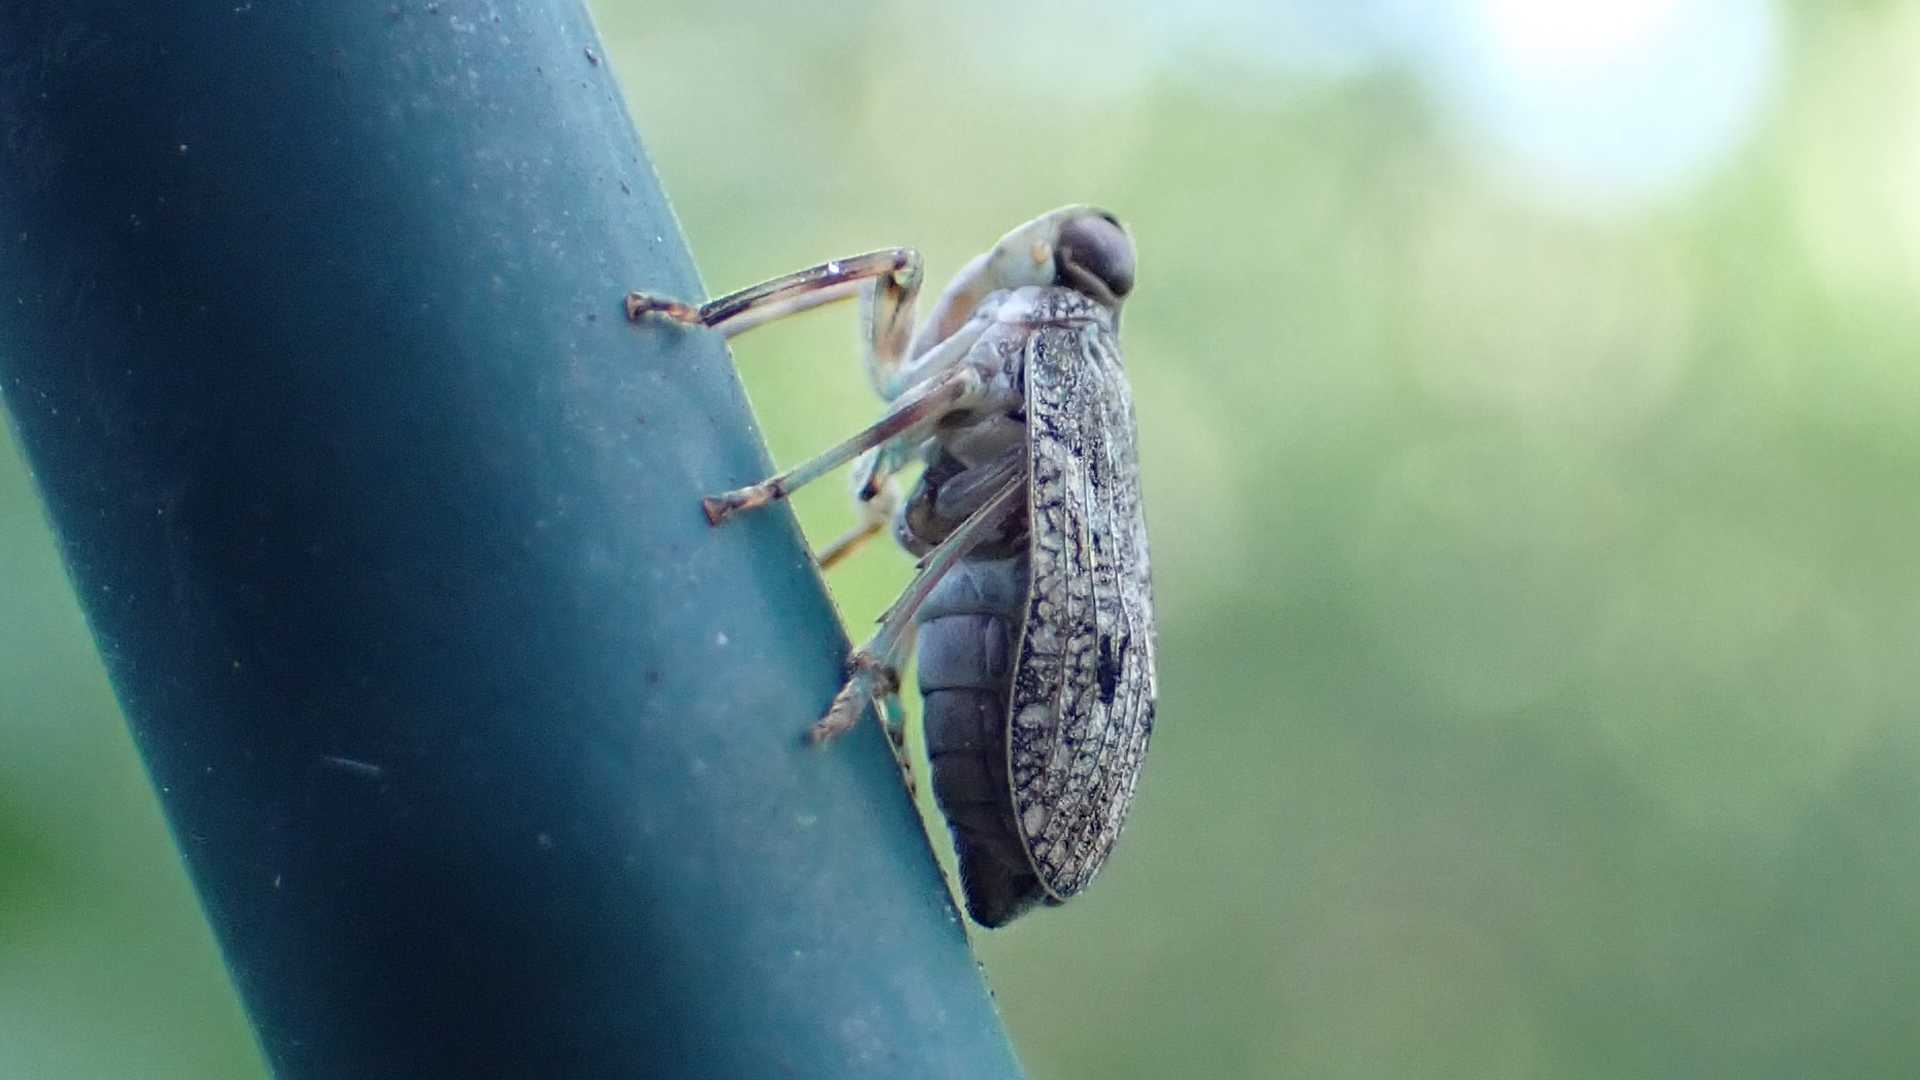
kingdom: Animalia
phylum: Arthropoda
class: Insecta
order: Hemiptera
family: Issidae
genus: Issus
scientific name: Issus coleoptratus
